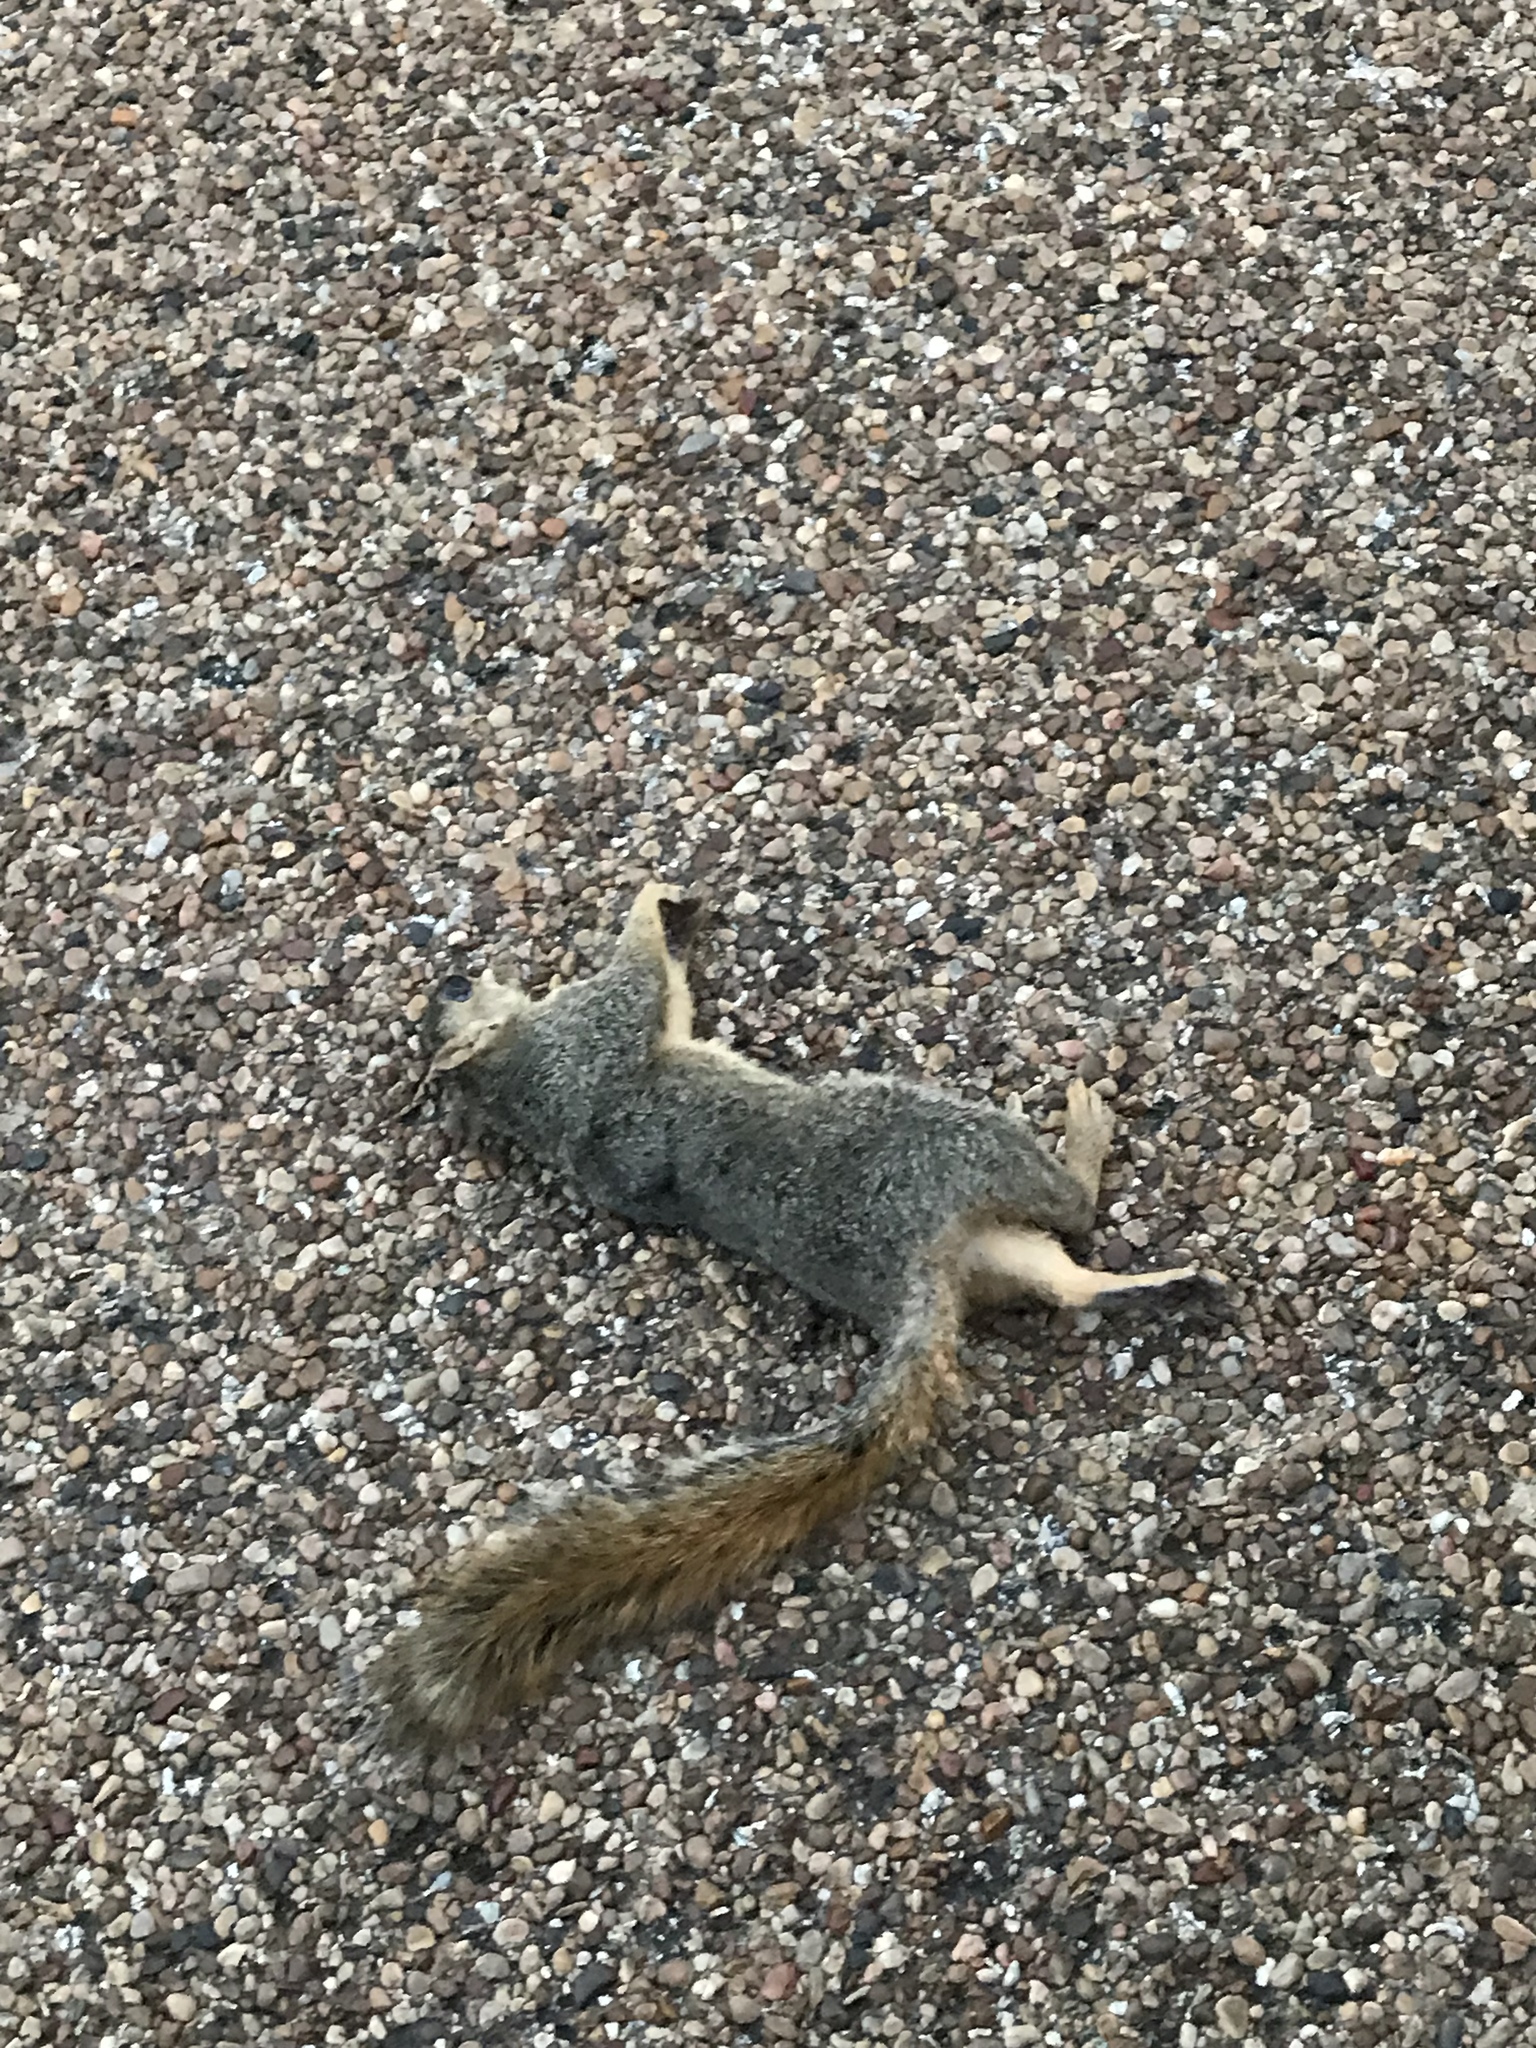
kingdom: Animalia
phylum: Chordata
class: Mammalia
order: Rodentia
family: Sciuridae
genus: Sciurus
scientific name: Sciurus niger
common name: Fox squirrel
